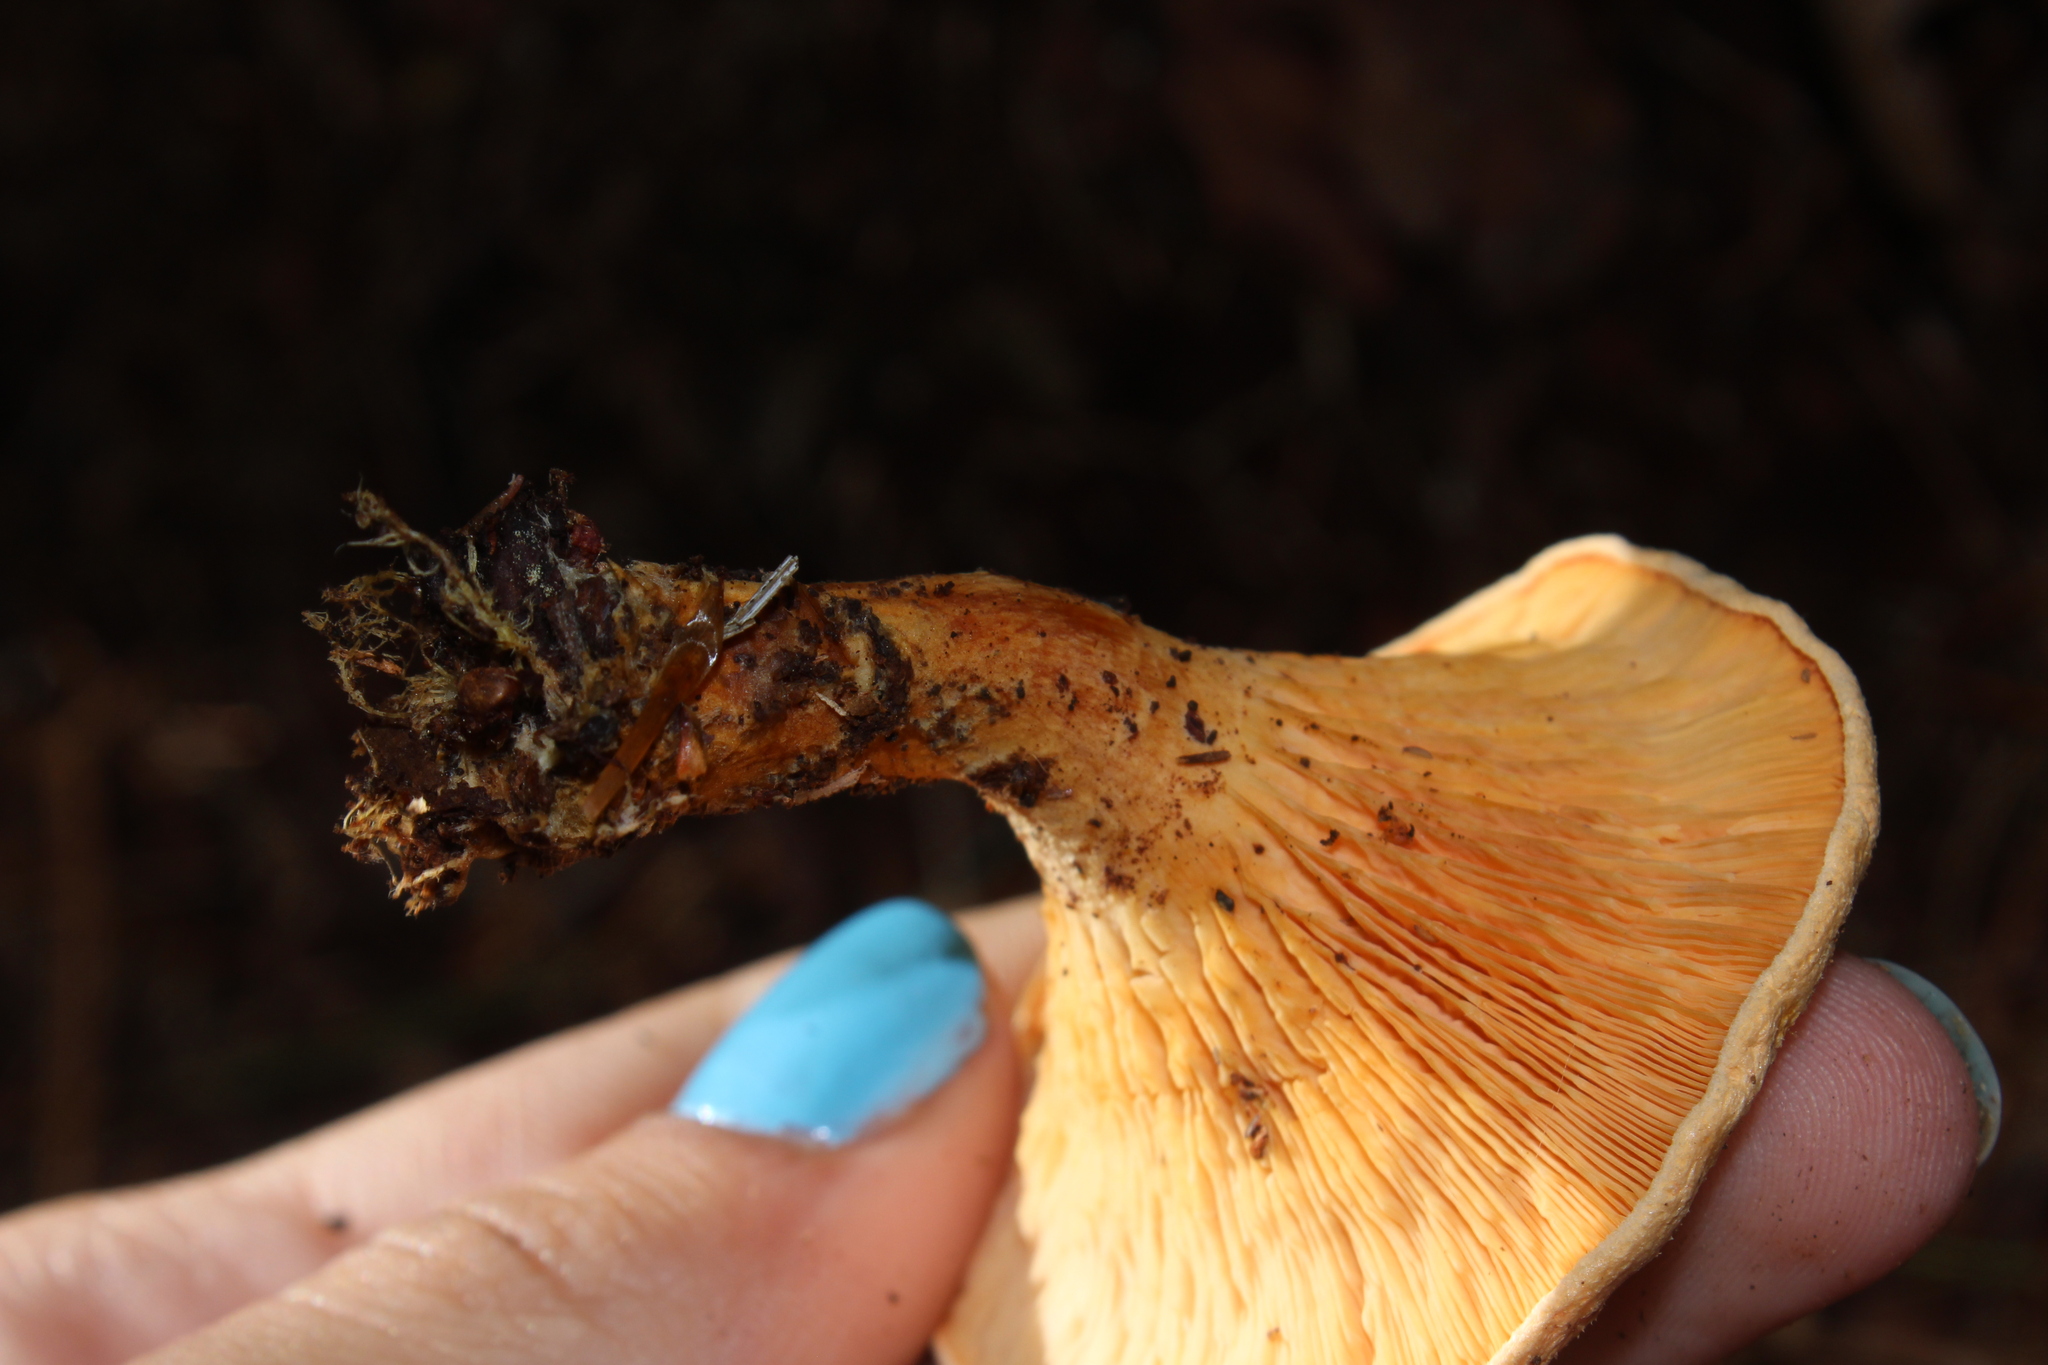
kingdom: Fungi
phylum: Basidiomycota
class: Agaricomycetes
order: Boletales
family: Hygrophoropsidaceae
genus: Hygrophoropsis
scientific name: Hygrophoropsis aurantiaca
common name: False chanterelle
